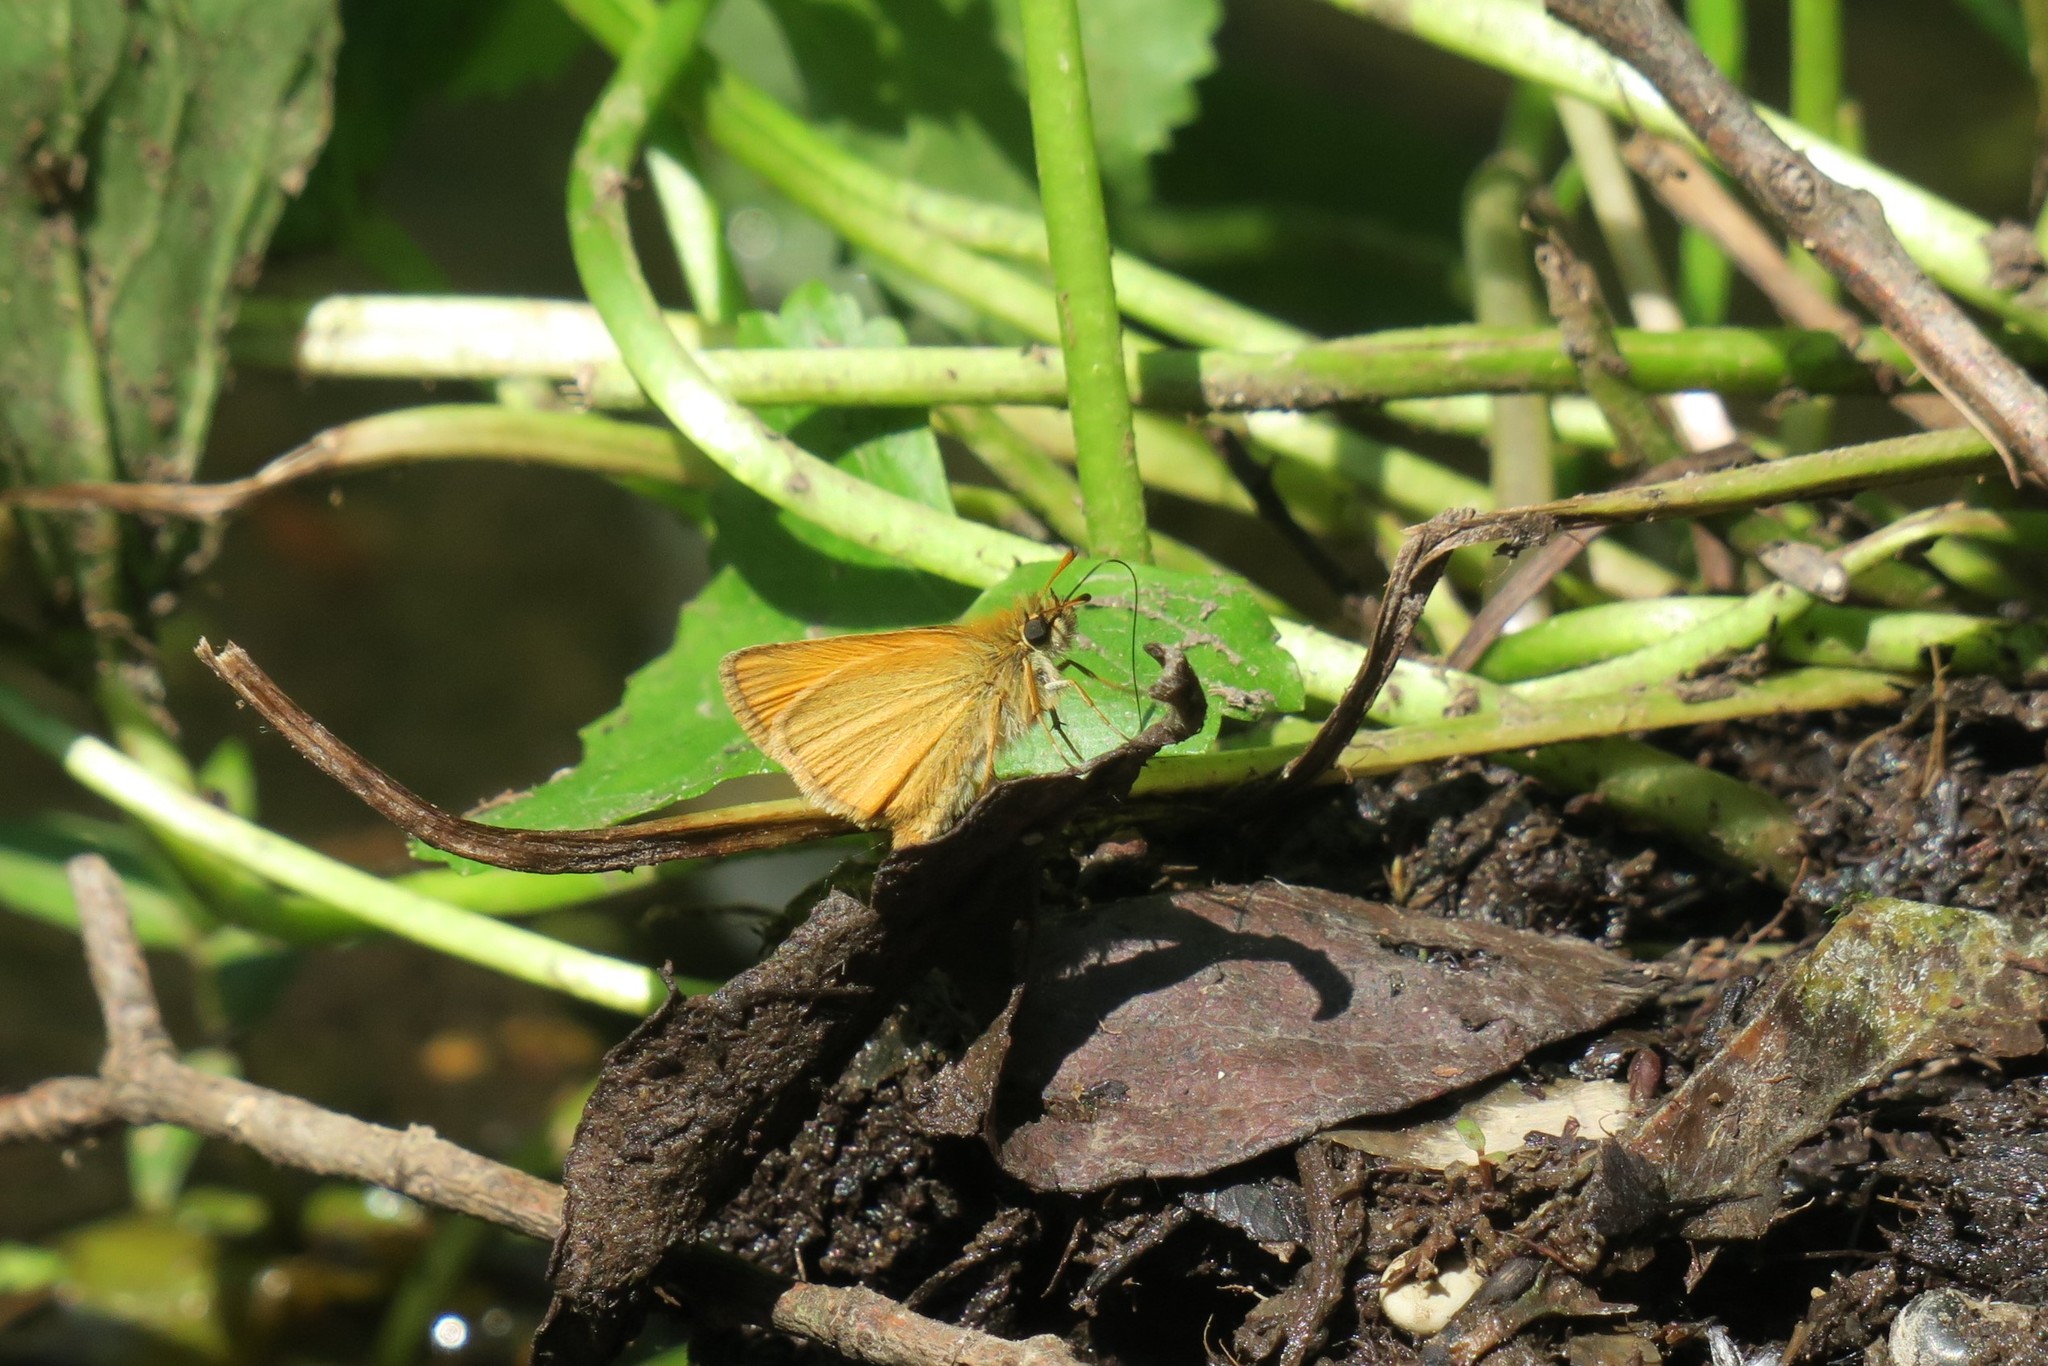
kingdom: Animalia
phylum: Arthropoda
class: Insecta
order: Lepidoptera
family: Hesperiidae
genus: Thymelicus
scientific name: Thymelicus lineola
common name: Essex skipper
